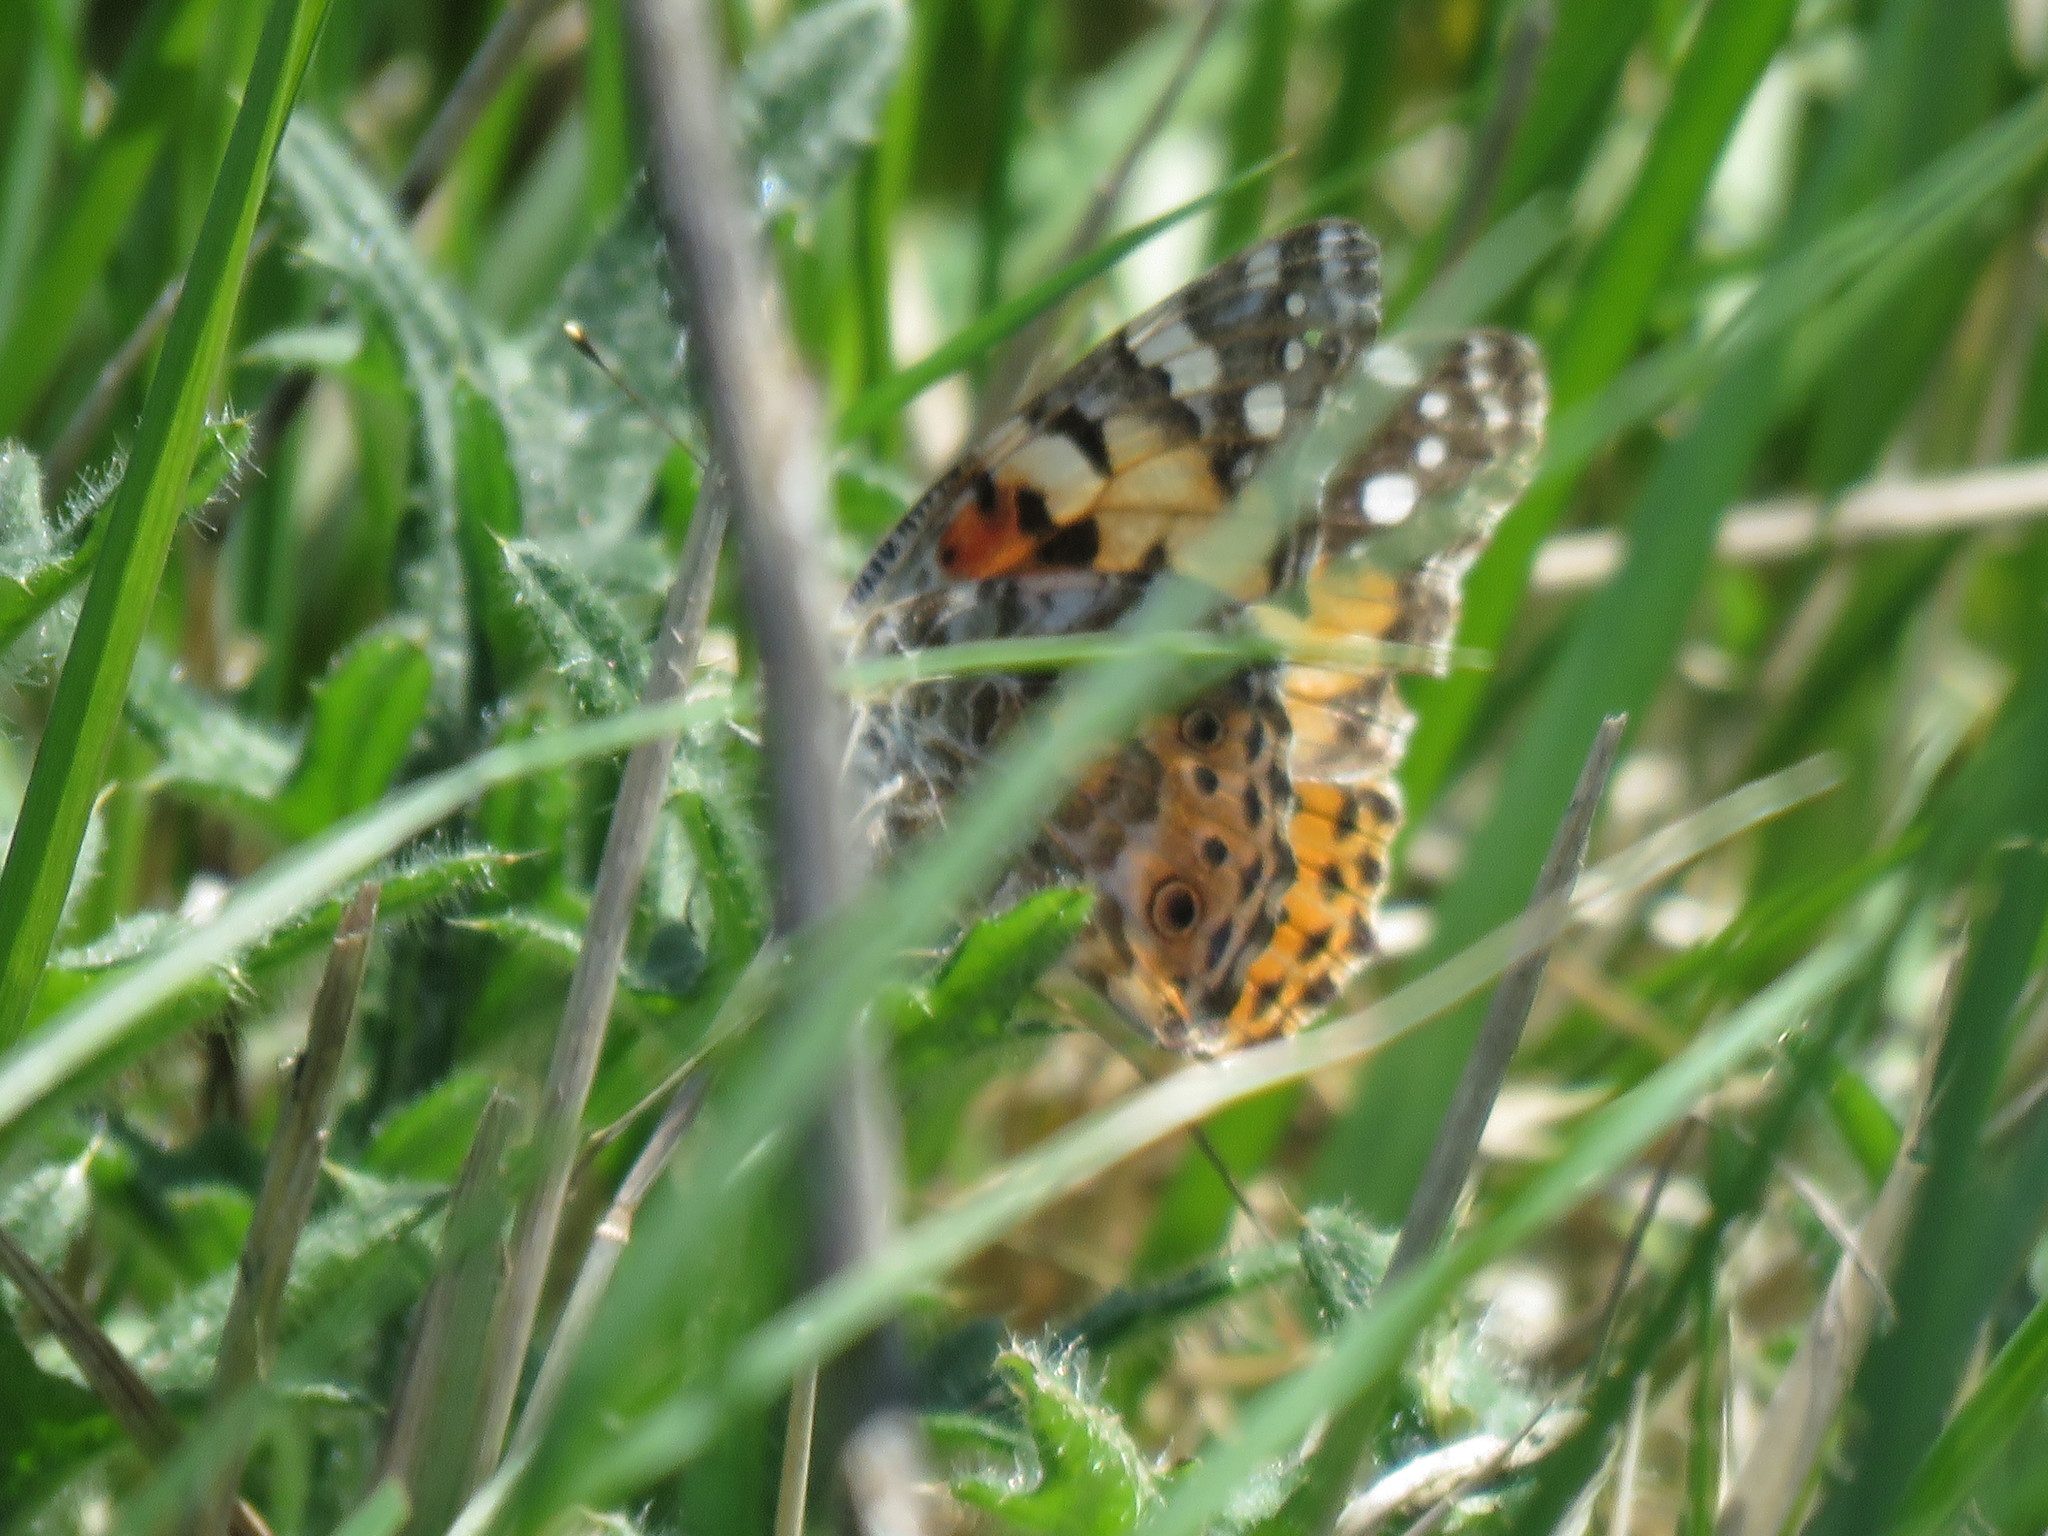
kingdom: Animalia
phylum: Arthropoda
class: Insecta
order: Lepidoptera
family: Nymphalidae
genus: Vanessa
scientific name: Vanessa cardui
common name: Painted lady
